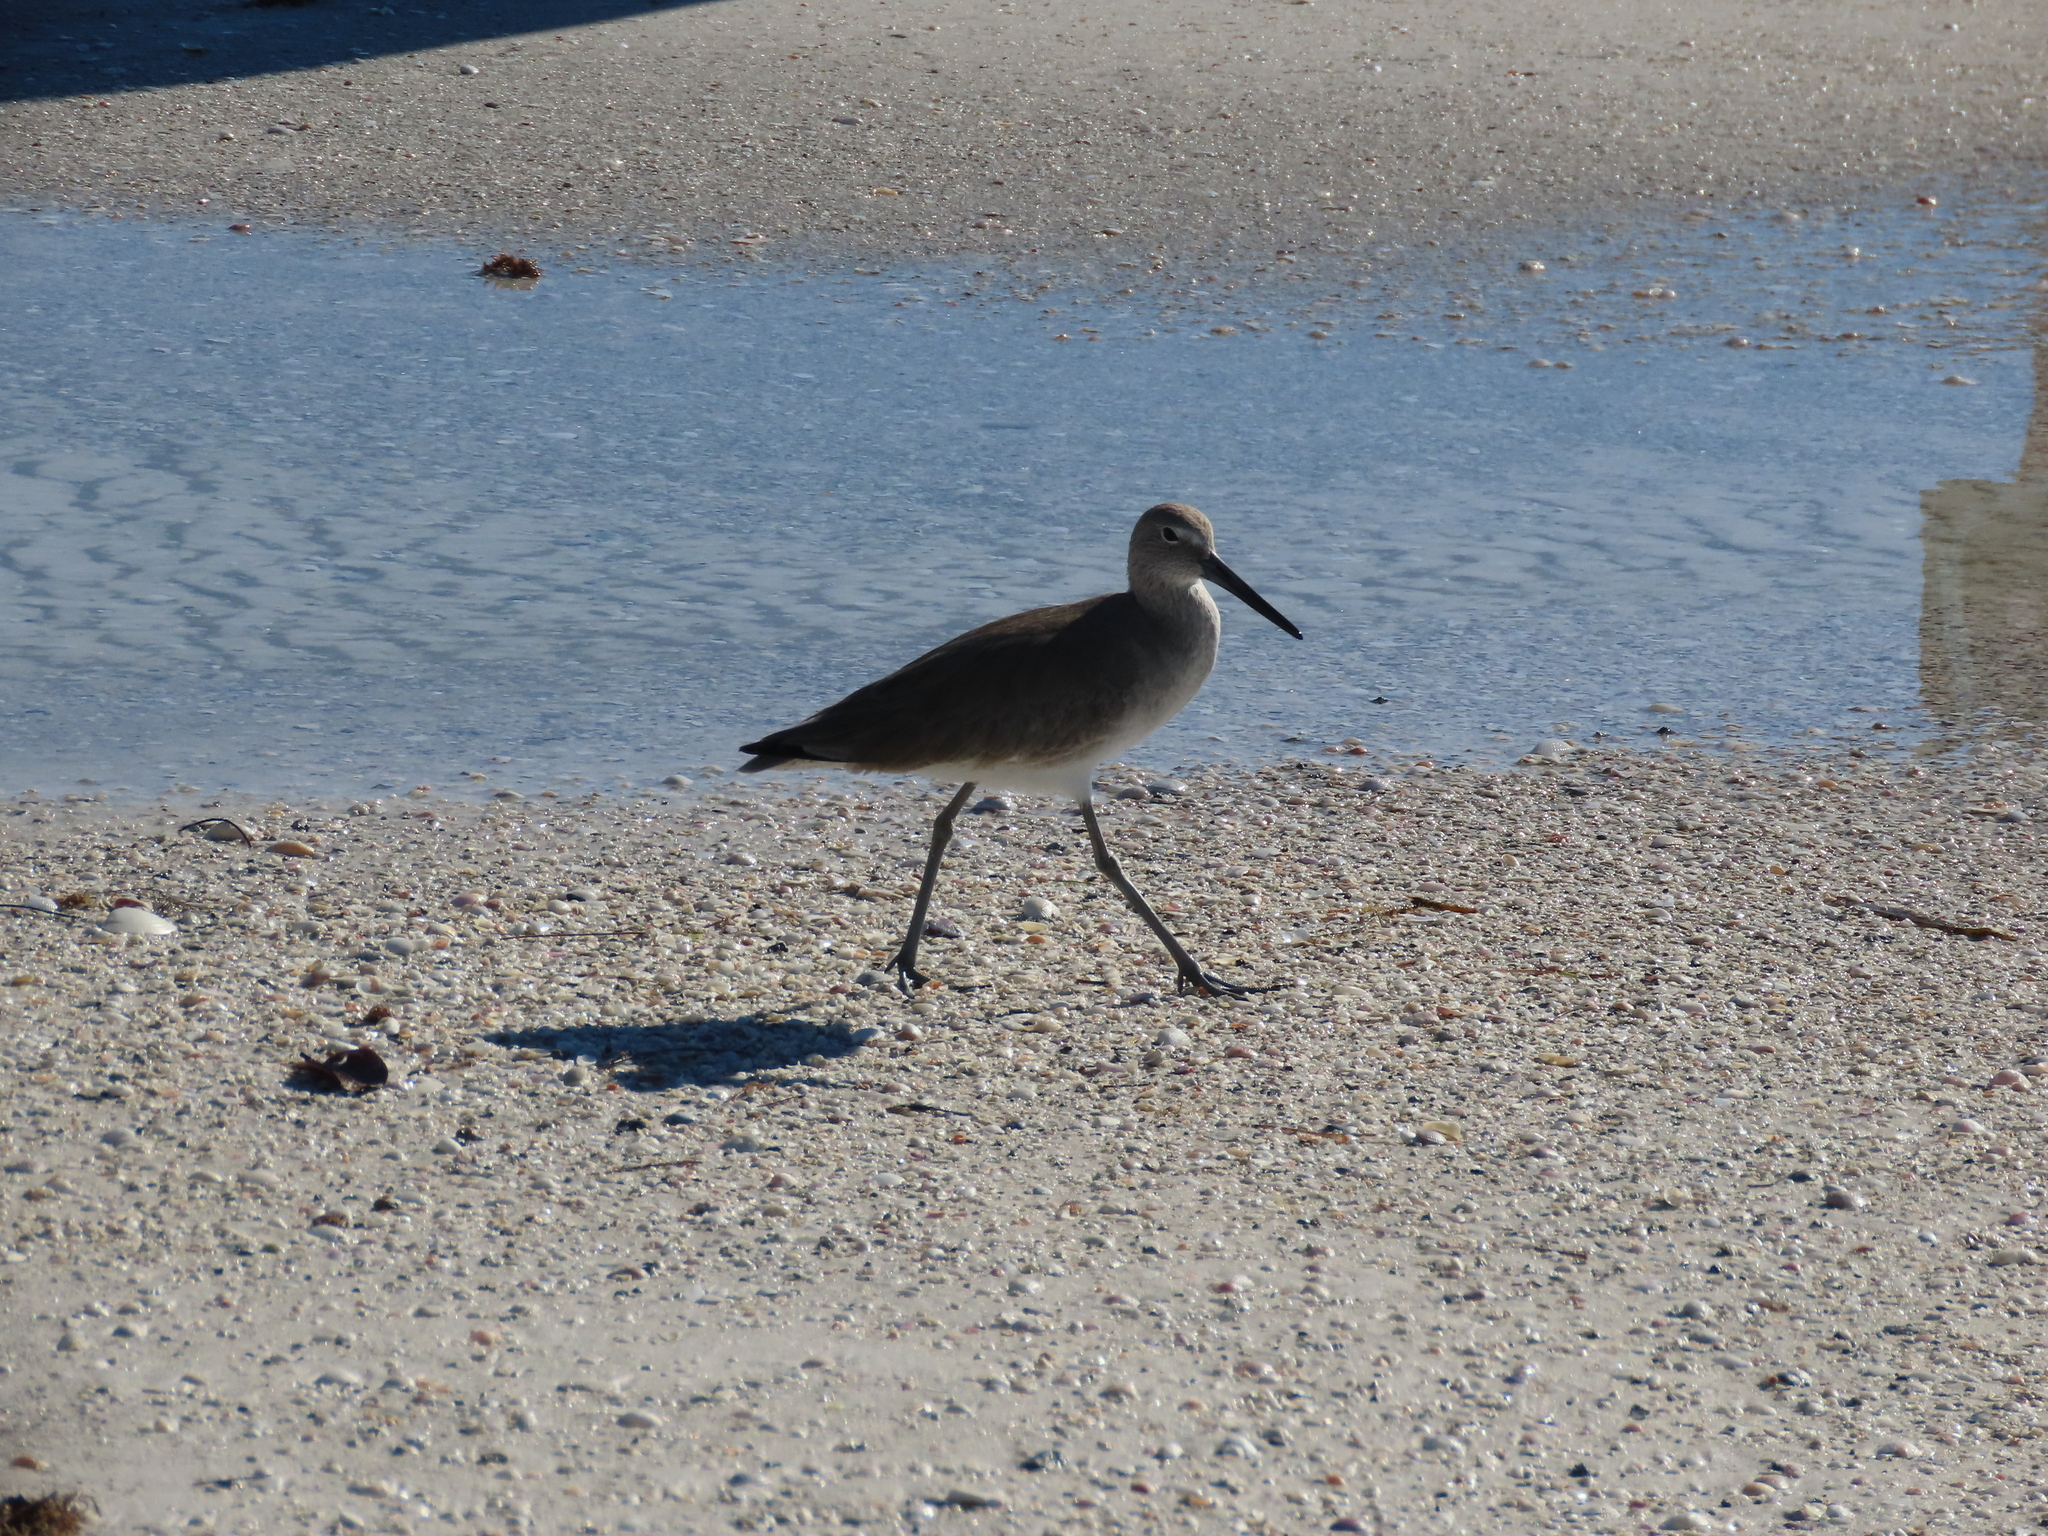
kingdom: Animalia
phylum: Chordata
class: Aves
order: Charadriiformes
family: Scolopacidae
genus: Tringa
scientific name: Tringa semipalmata
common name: Willet
